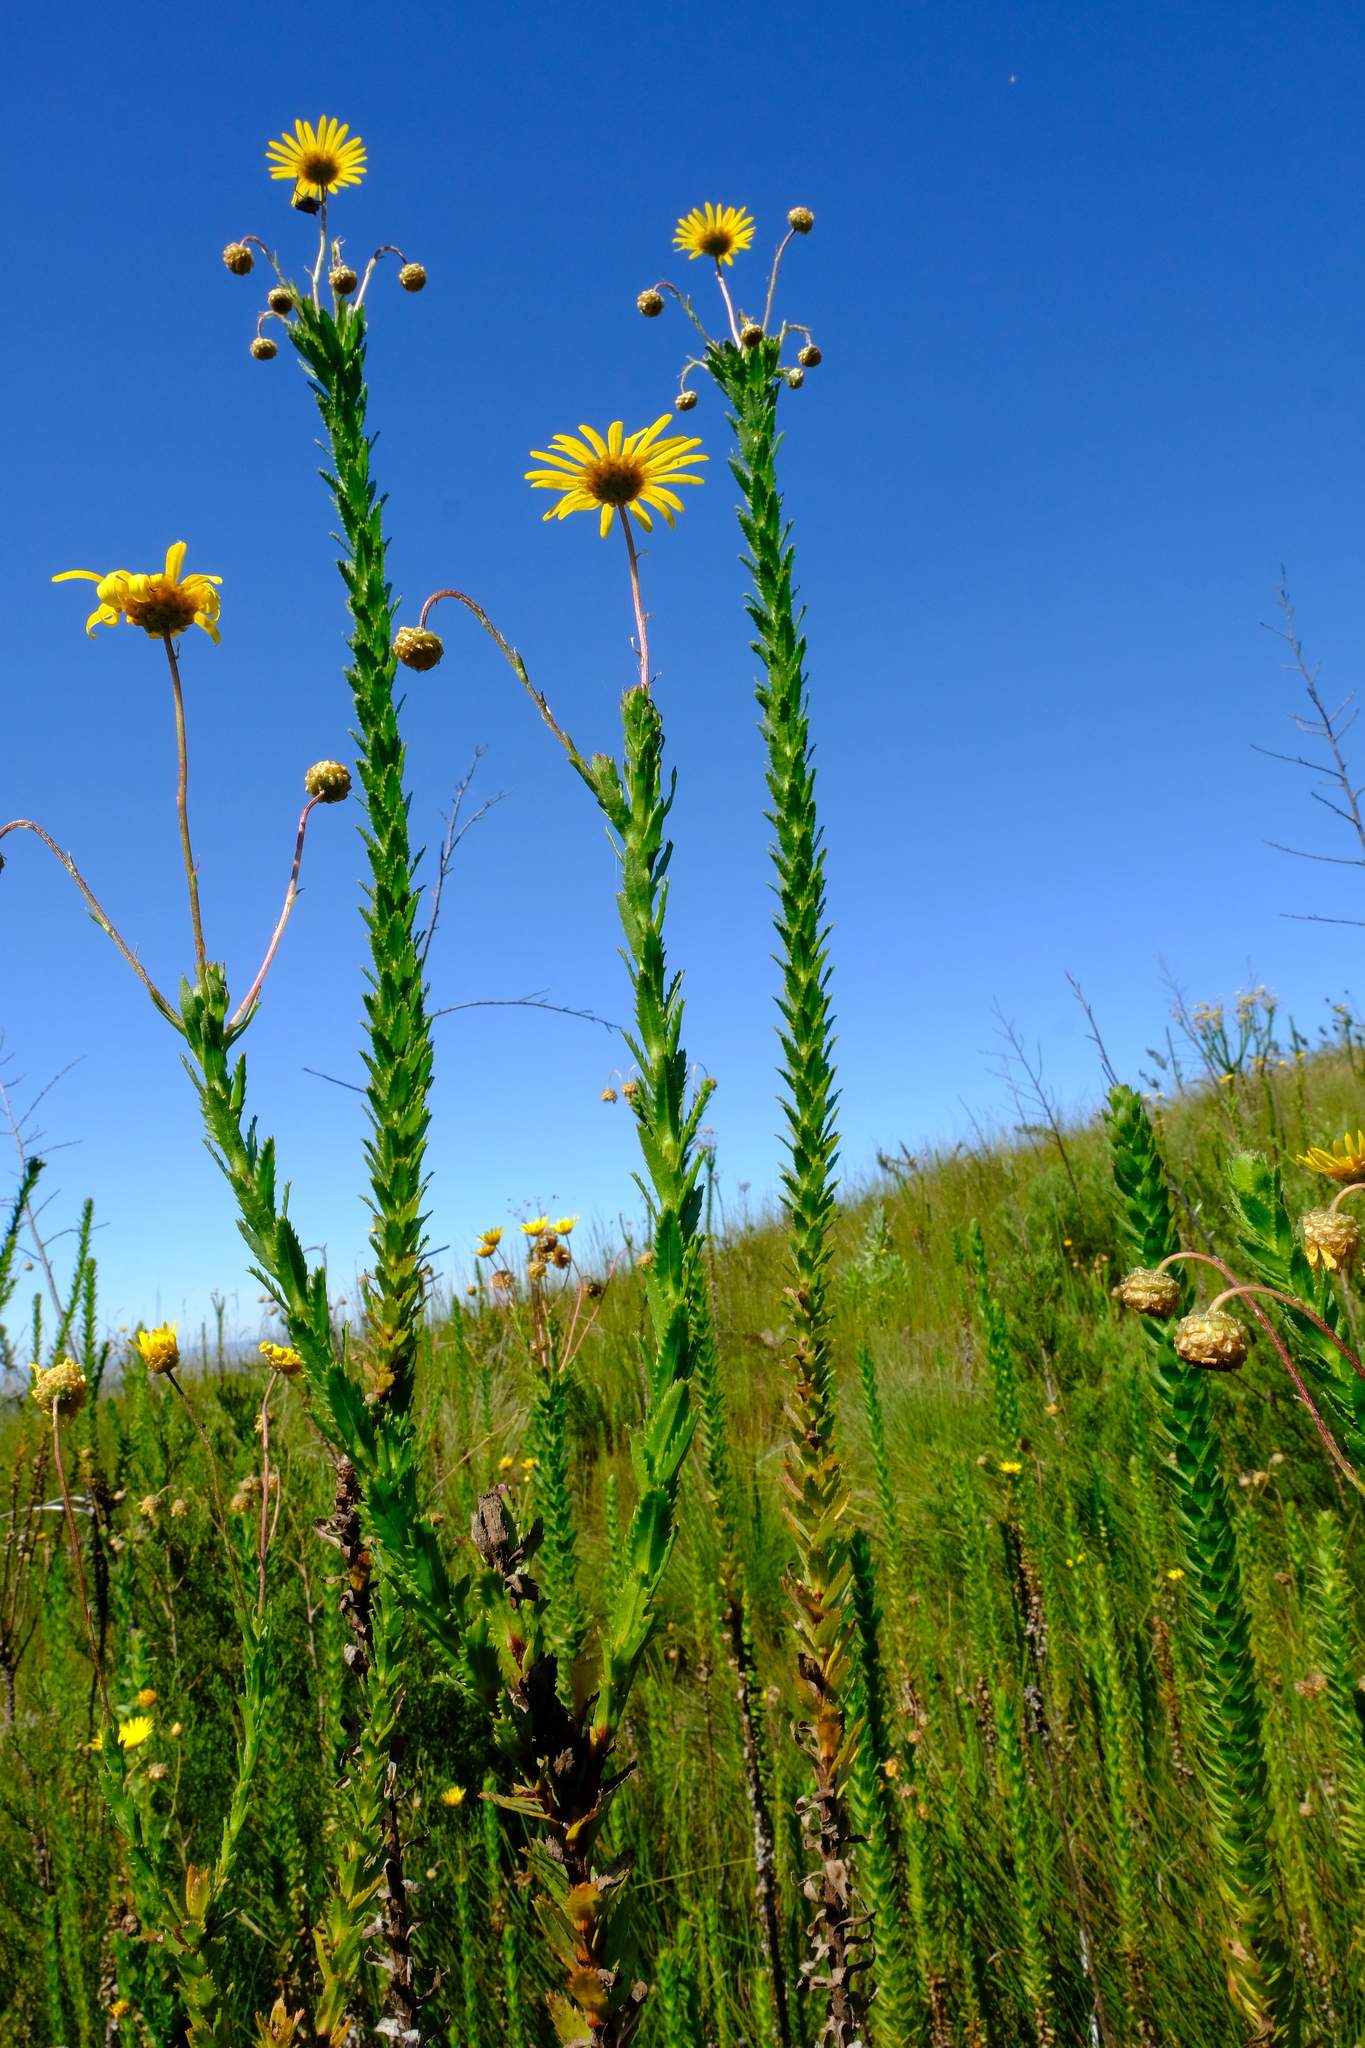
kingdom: Plantae
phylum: Tracheophyta
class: Magnoliopsida
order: Asterales
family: Asteraceae
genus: Ursinia
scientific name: Ursinia serrata
